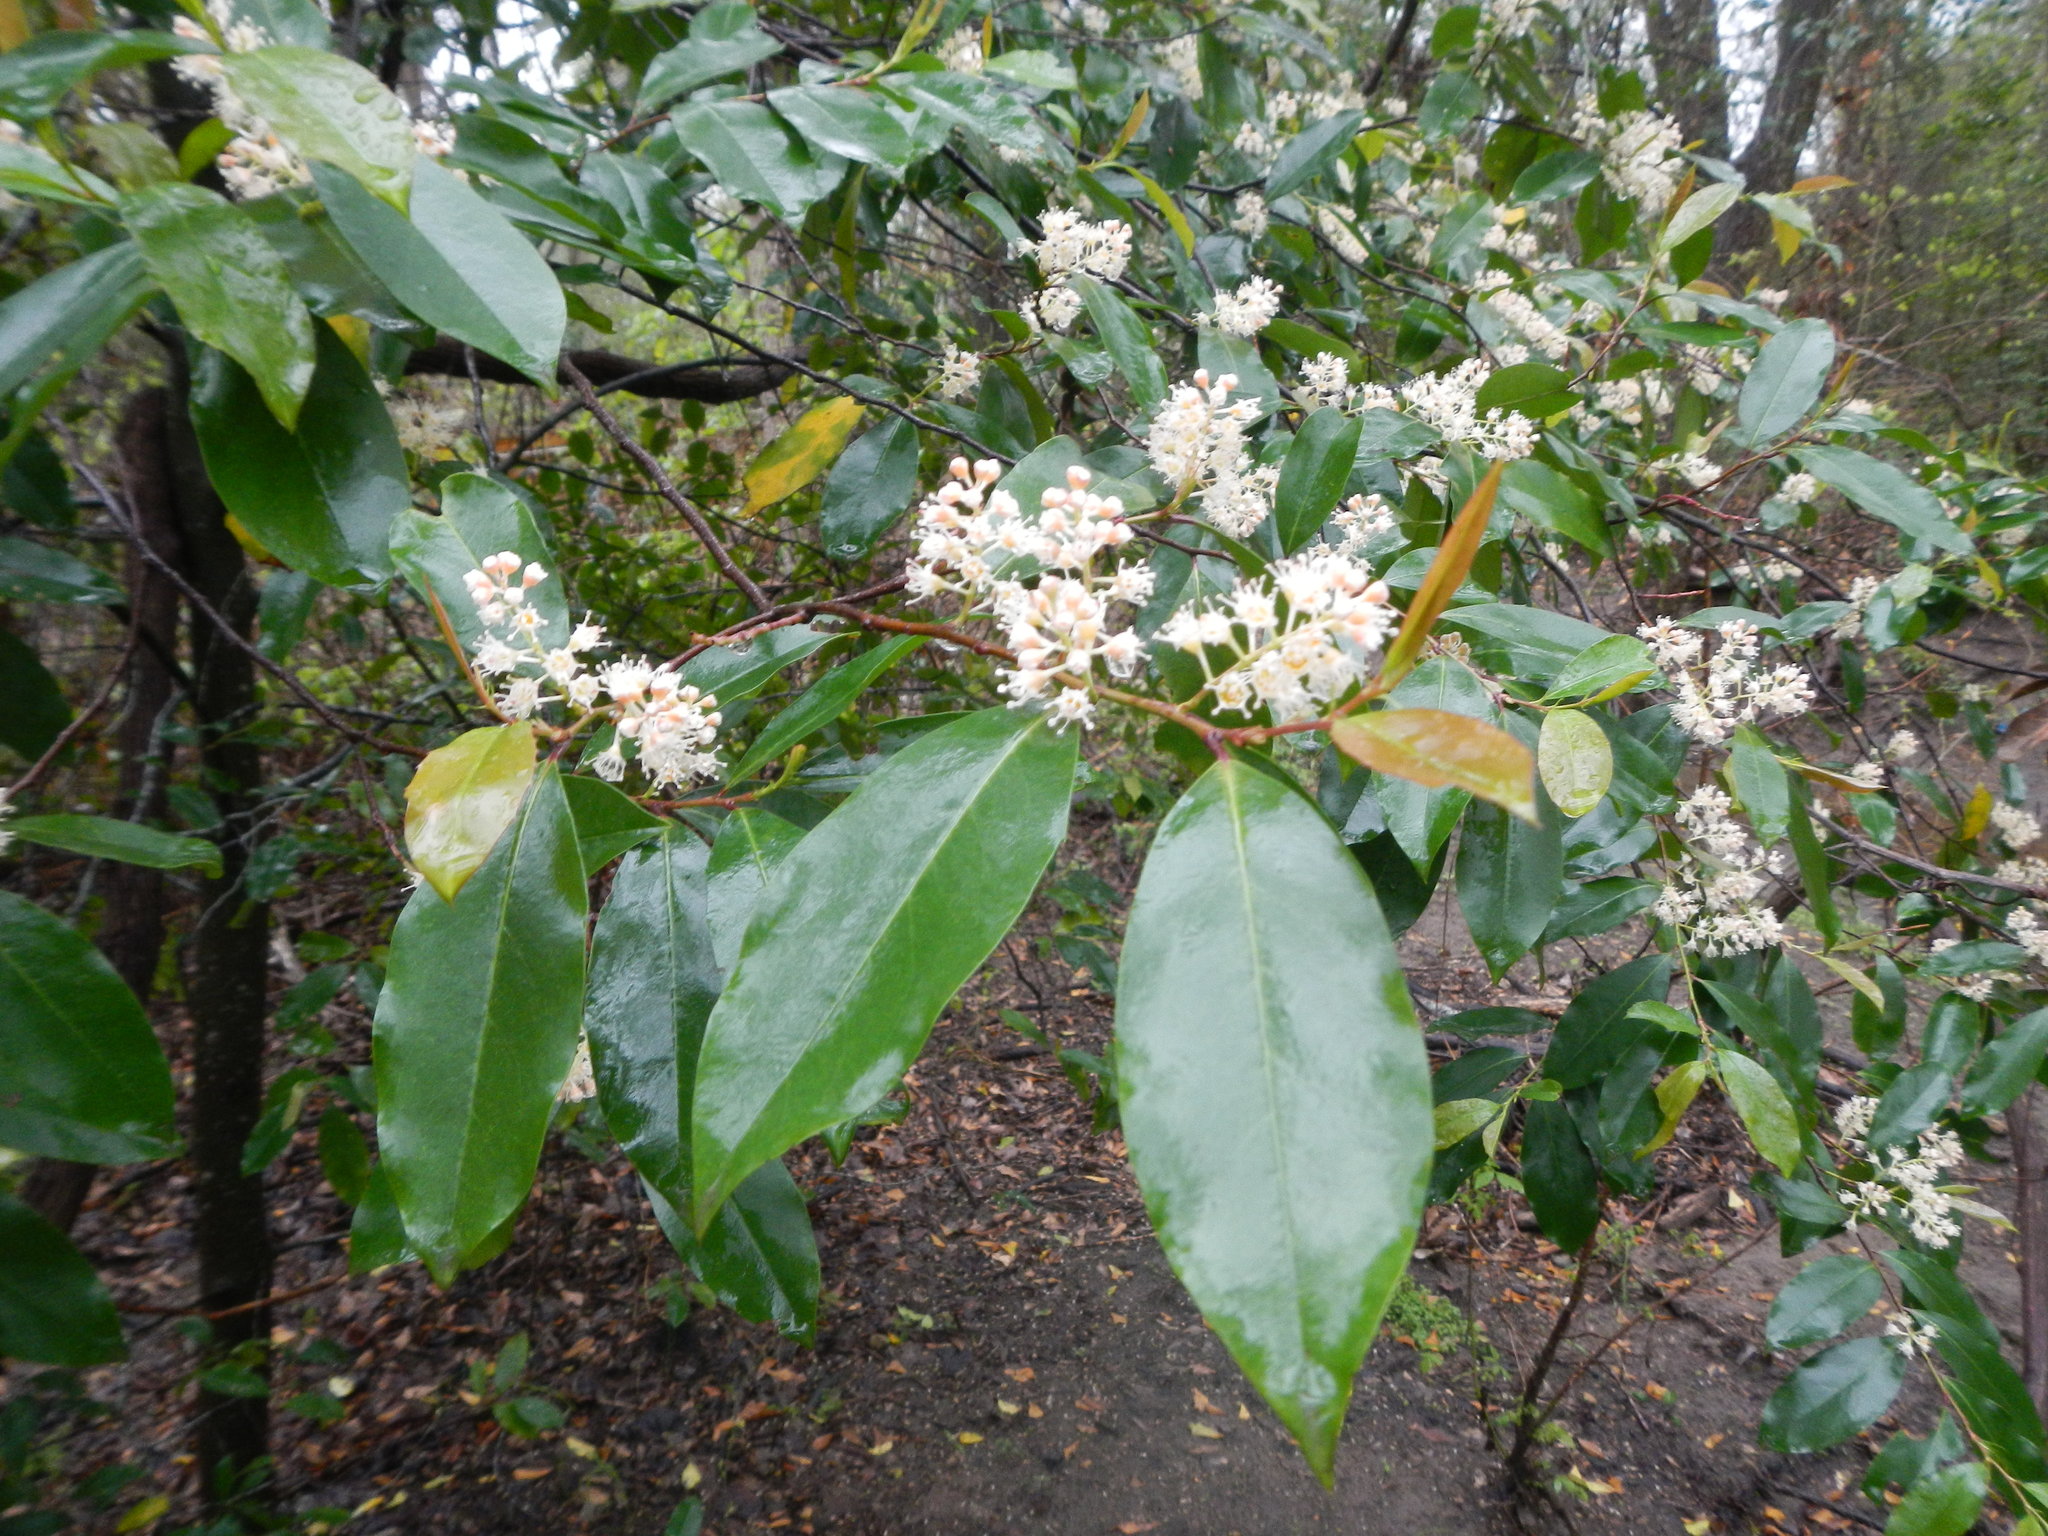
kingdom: Plantae
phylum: Tracheophyta
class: Magnoliopsida
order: Rosales
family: Rosaceae
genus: Prunus
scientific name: Prunus caroliniana
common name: Carolina laurel cherry
